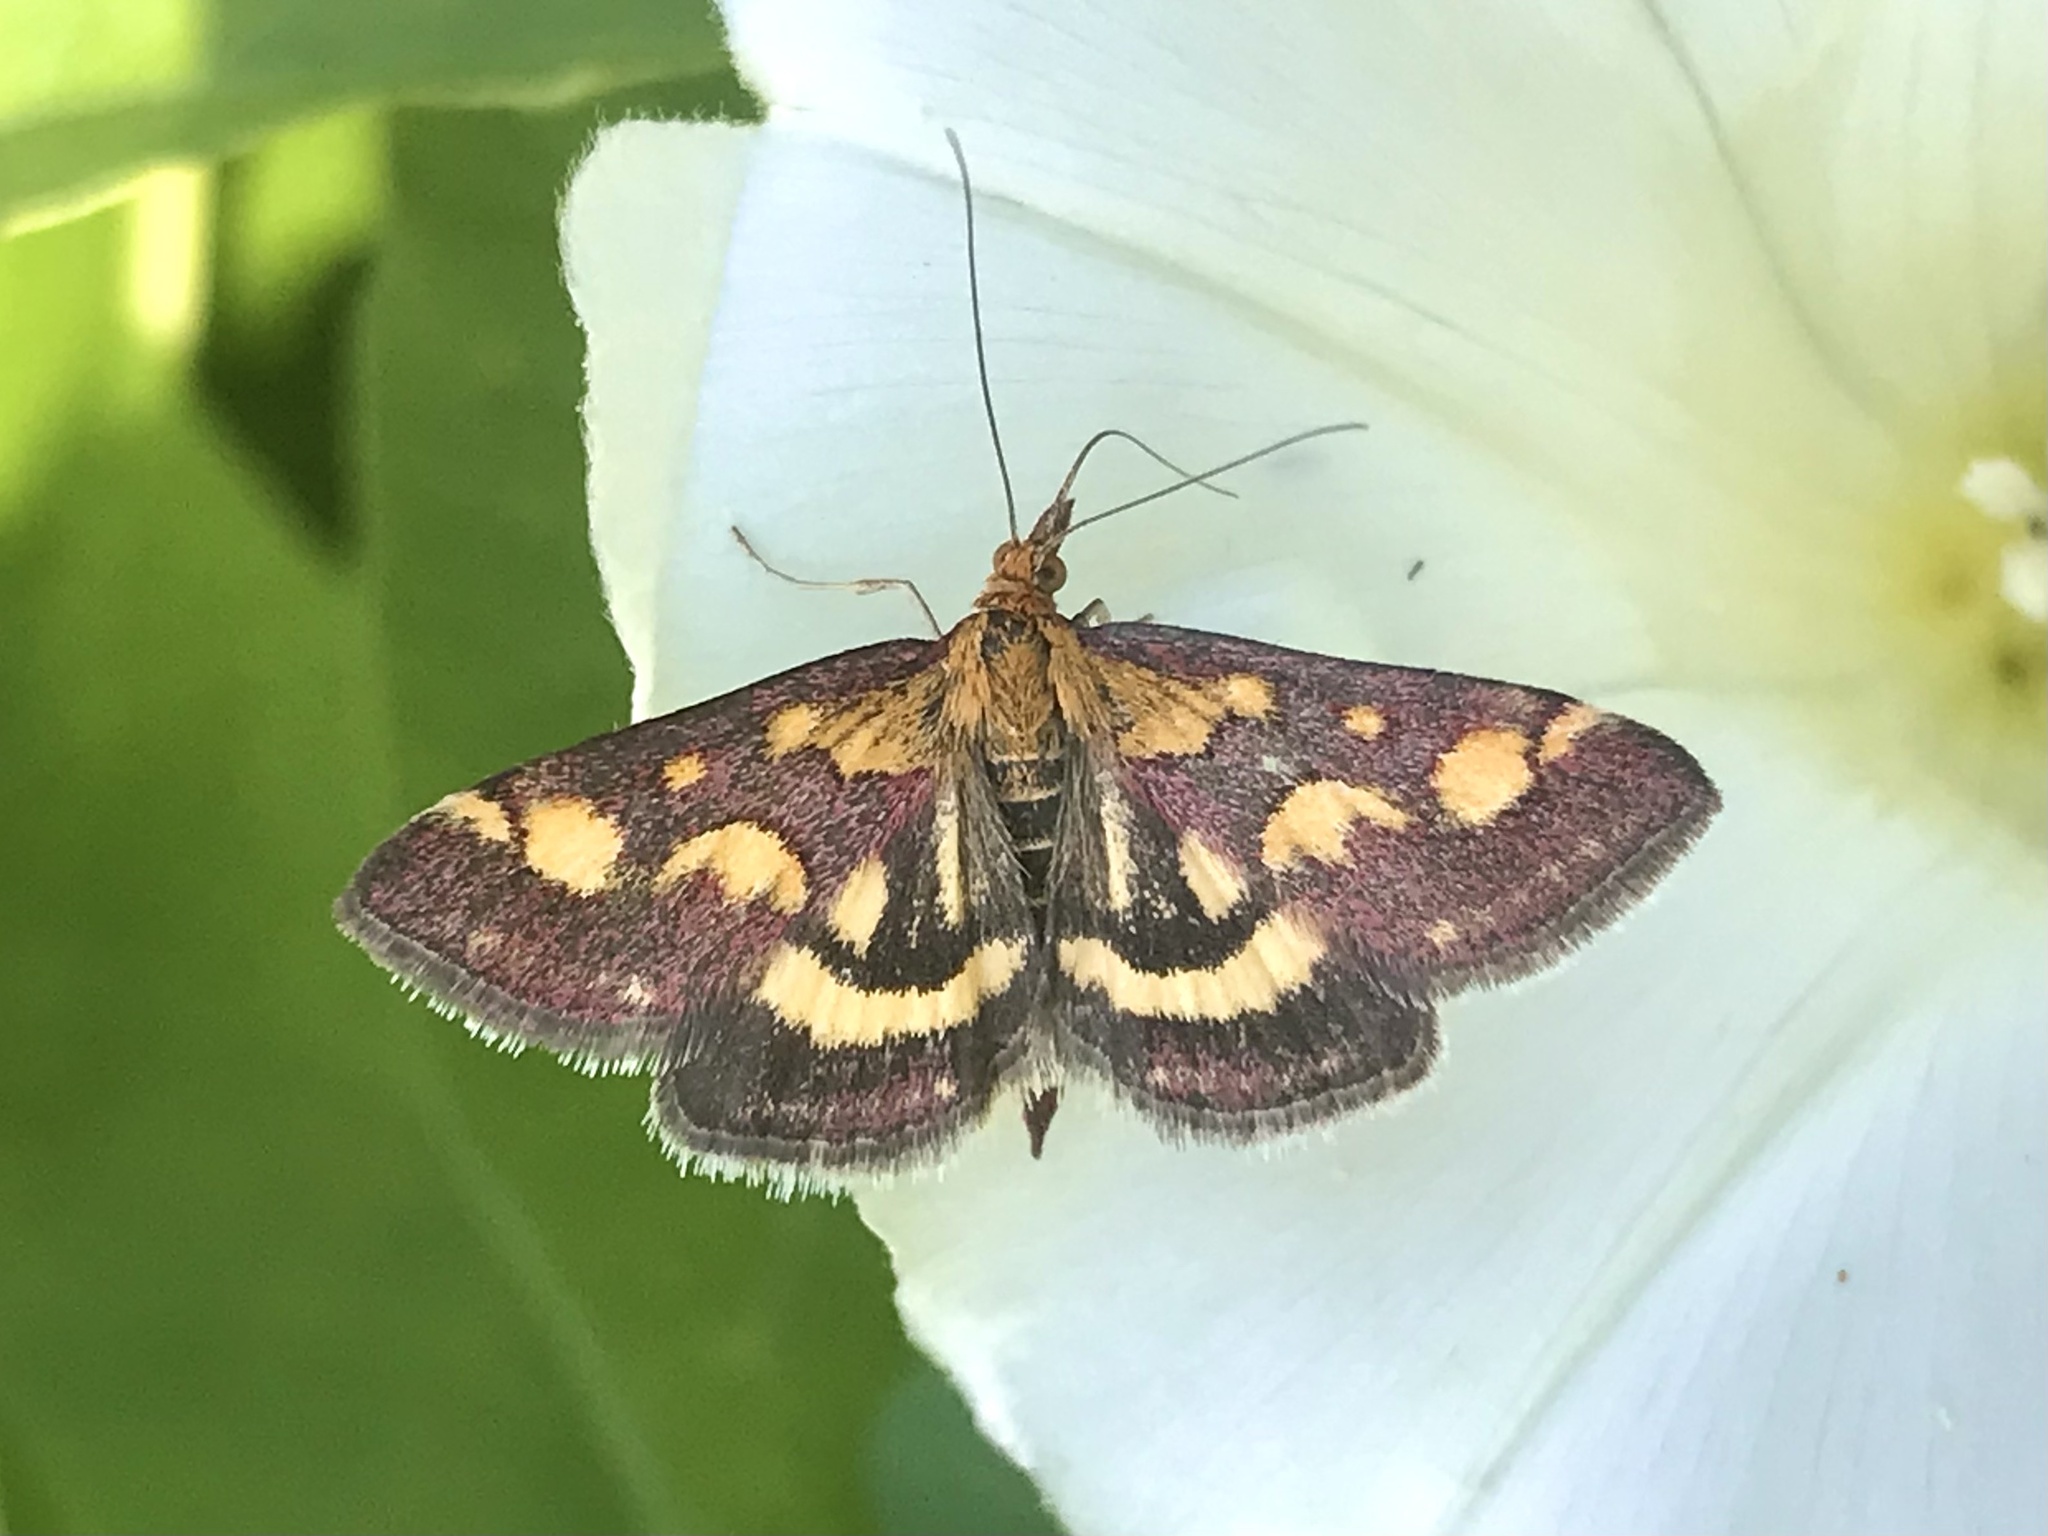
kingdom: Animalia
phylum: Arthropoda
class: Insecta
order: Lepidoptera
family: Crambidae
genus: Pyrausta
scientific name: Pyrausta purpuralis
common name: Common purple & gold
